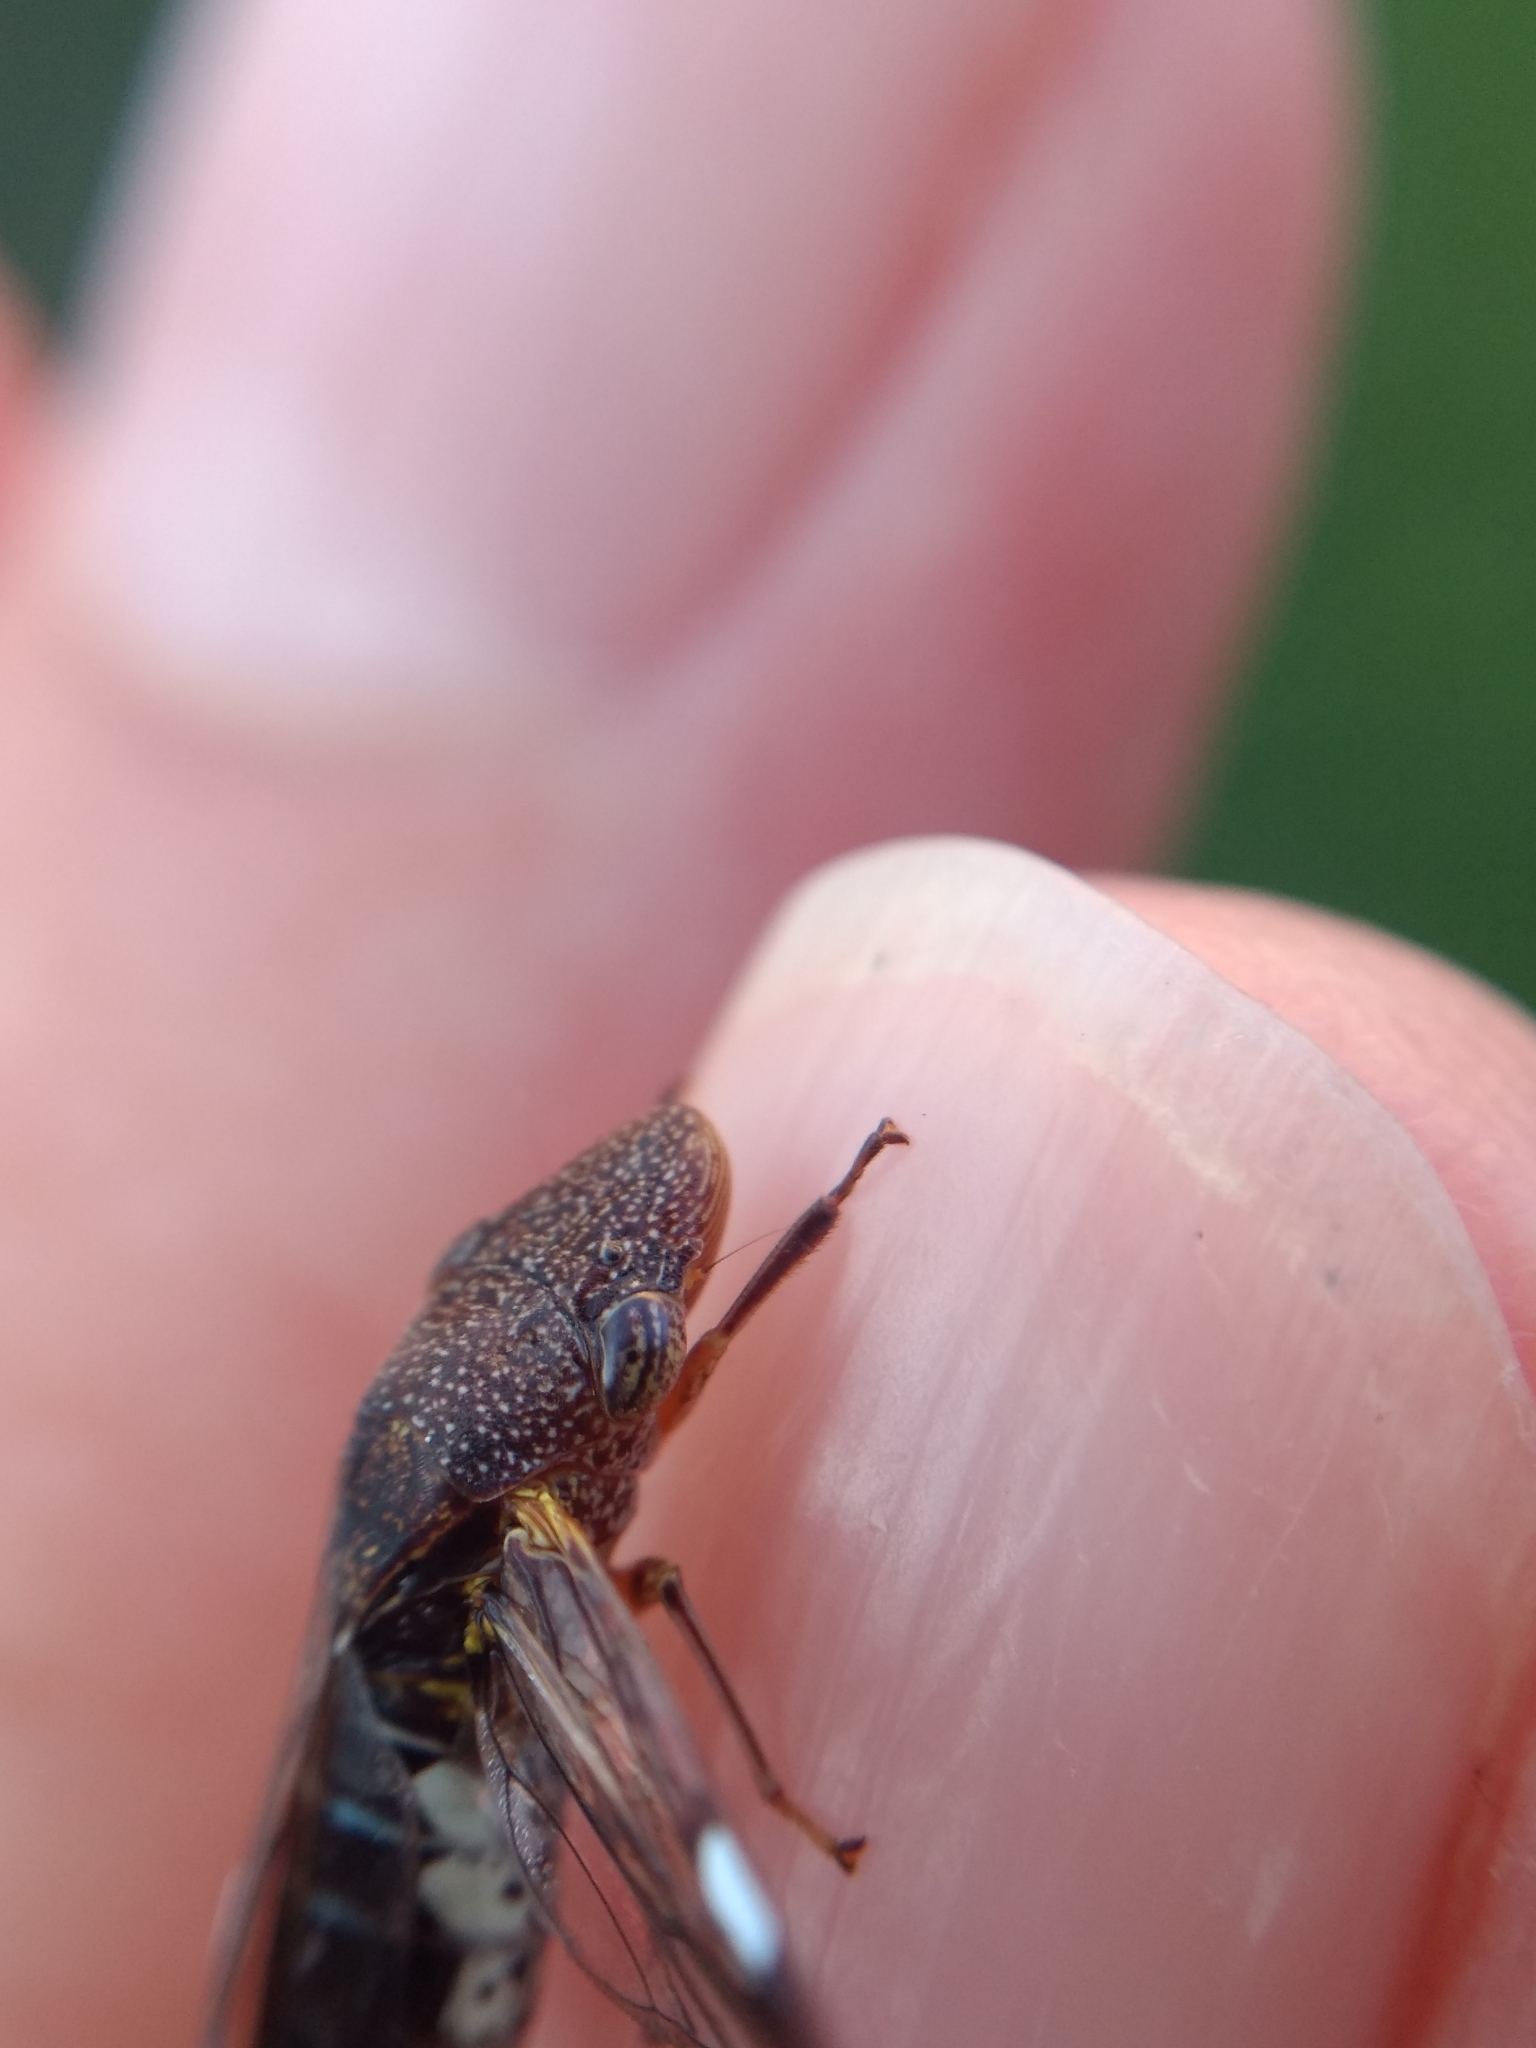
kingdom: Animalia
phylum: Arthropoda
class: Insecta
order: Hemiptera
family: Cicadellidae
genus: Homalodisca
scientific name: Homalodisca vitripennis
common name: Glassy-winged sharpshooter
